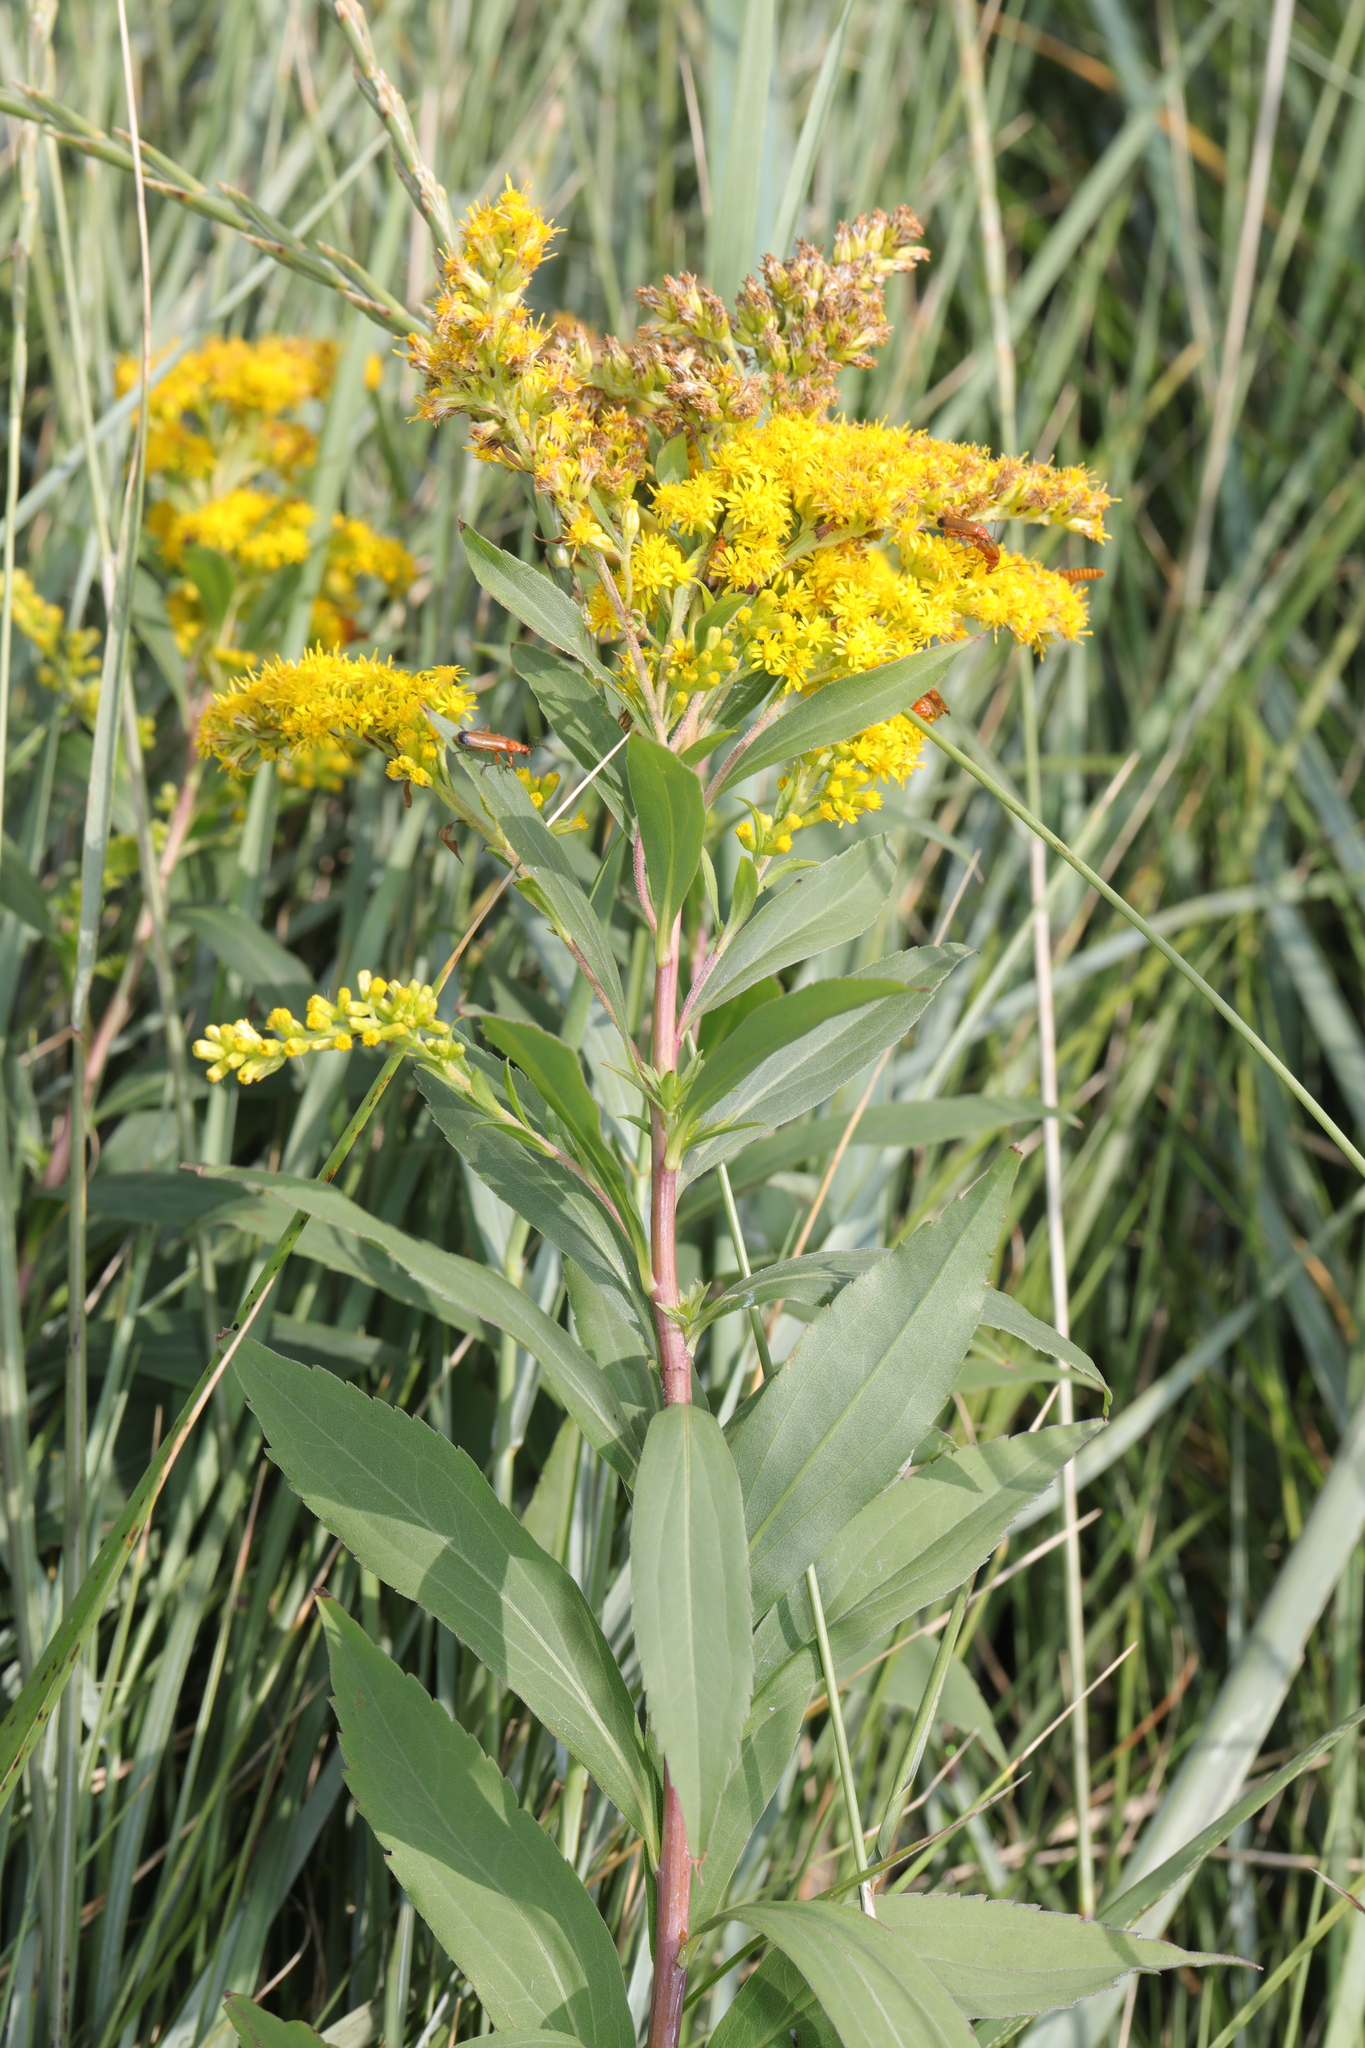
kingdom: Plantae
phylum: Tracheophyta
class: Magnoliopsida
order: Asterales
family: Asteraceae
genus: Solidago
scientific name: Solidago gigantea
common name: Giant goldenrod
